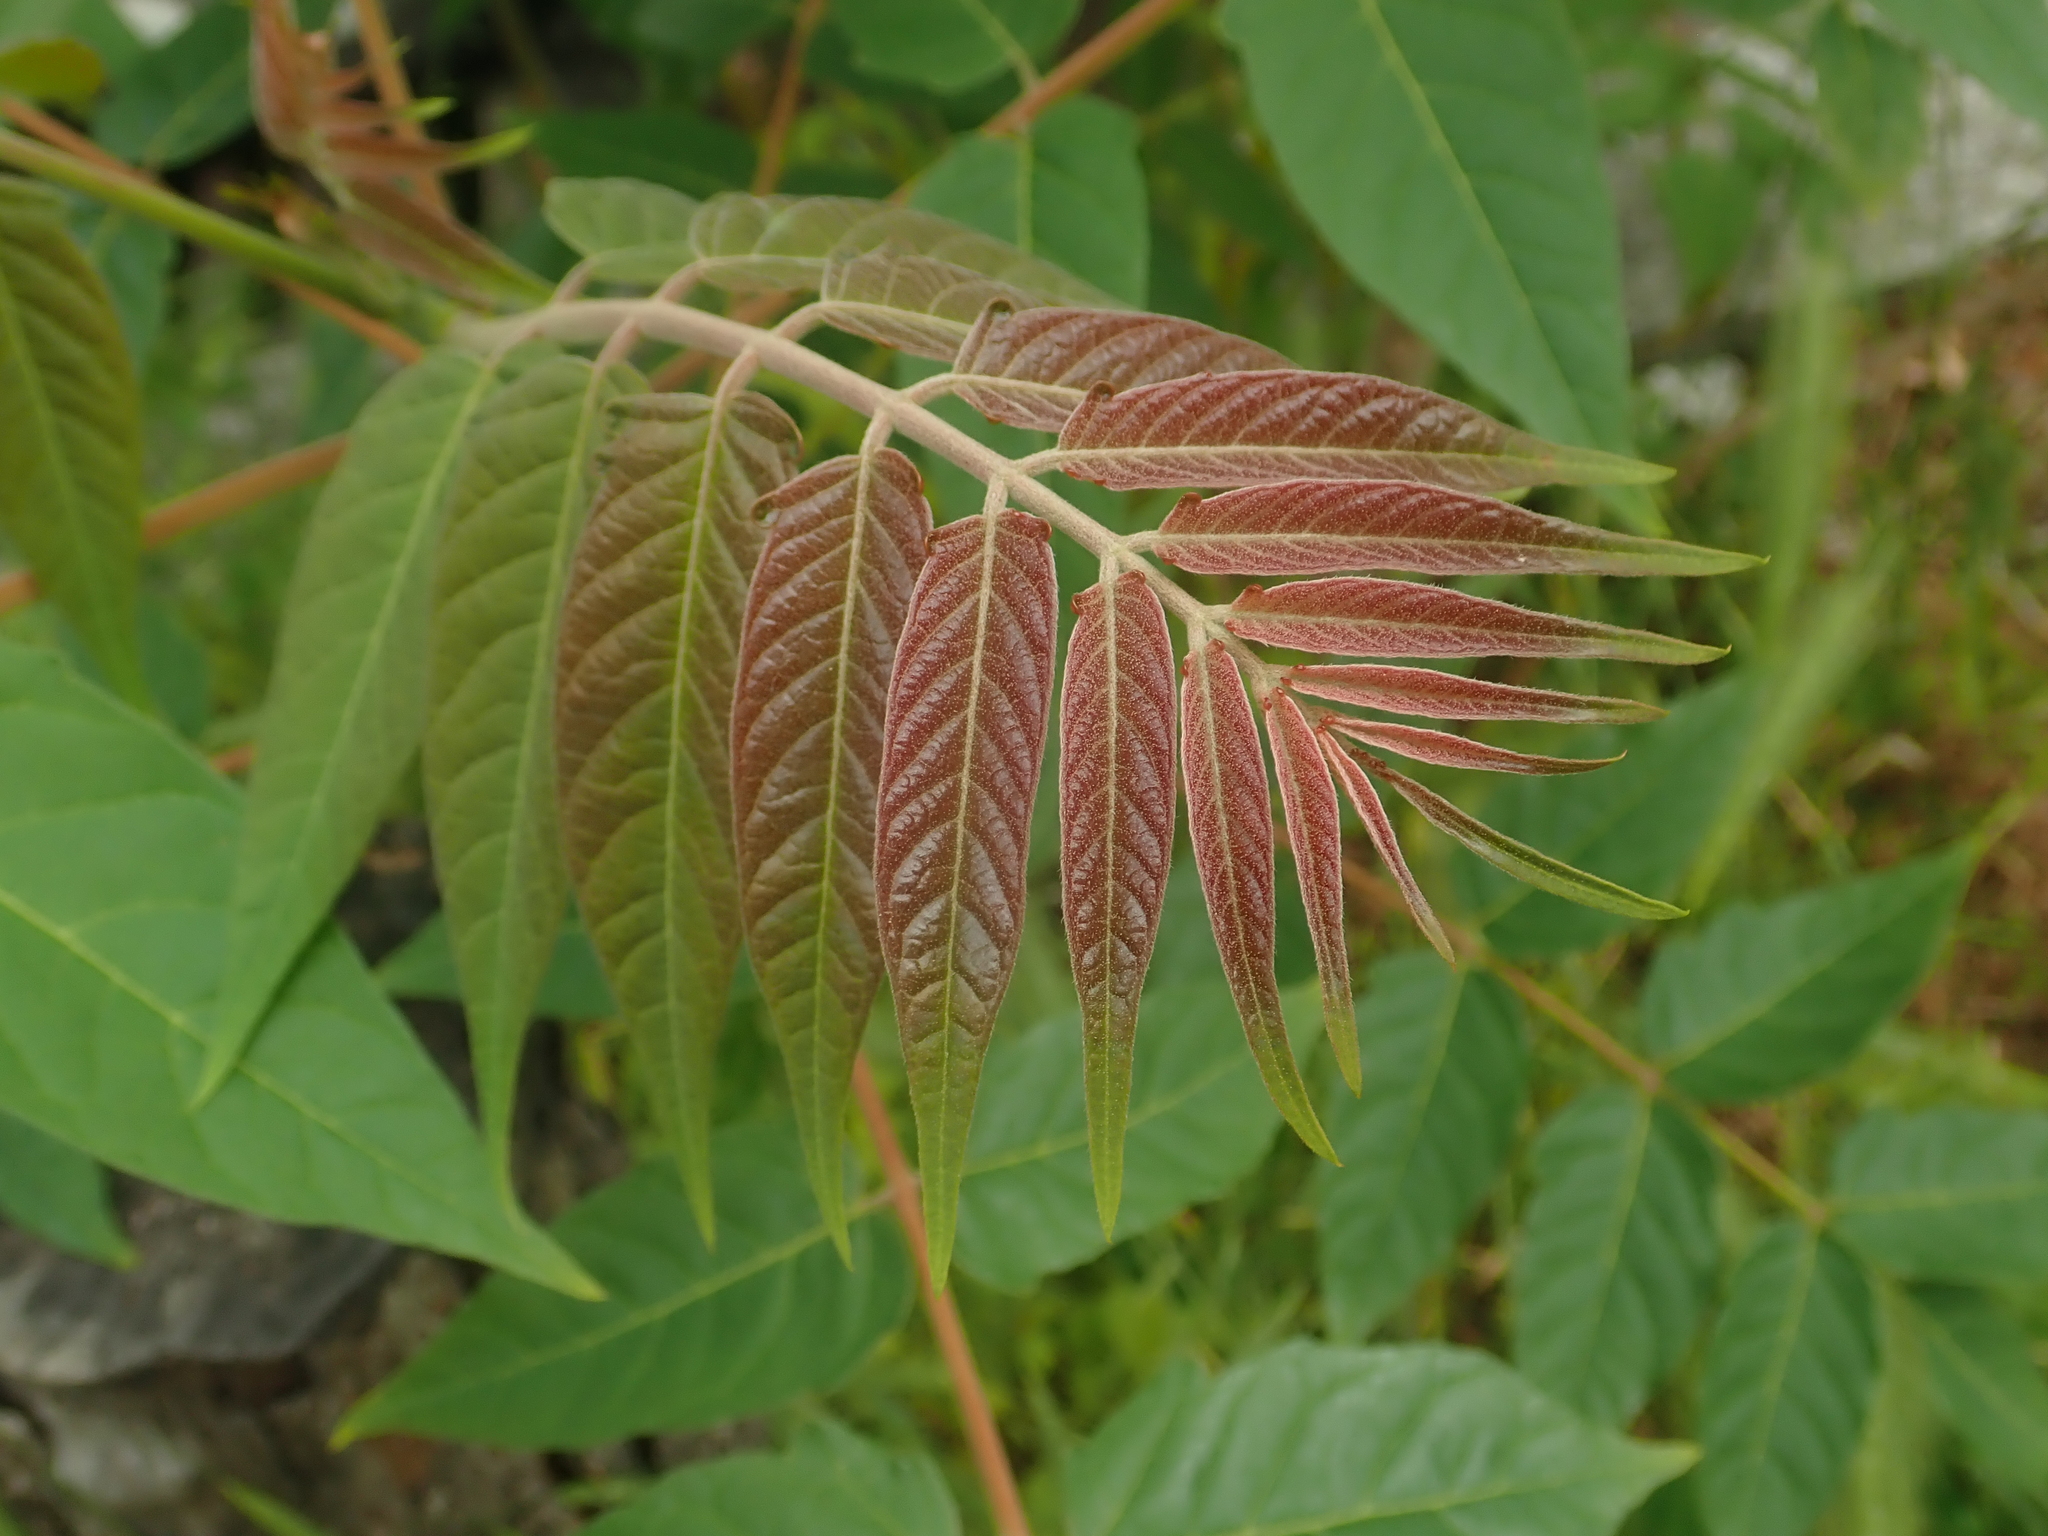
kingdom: Plantae
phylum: Tracheophyta
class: Magnoliopsida
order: Sapindales
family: Simaroubaceae
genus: Ailanthus
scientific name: Ailanthus altissima
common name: Tree-of-heaven
